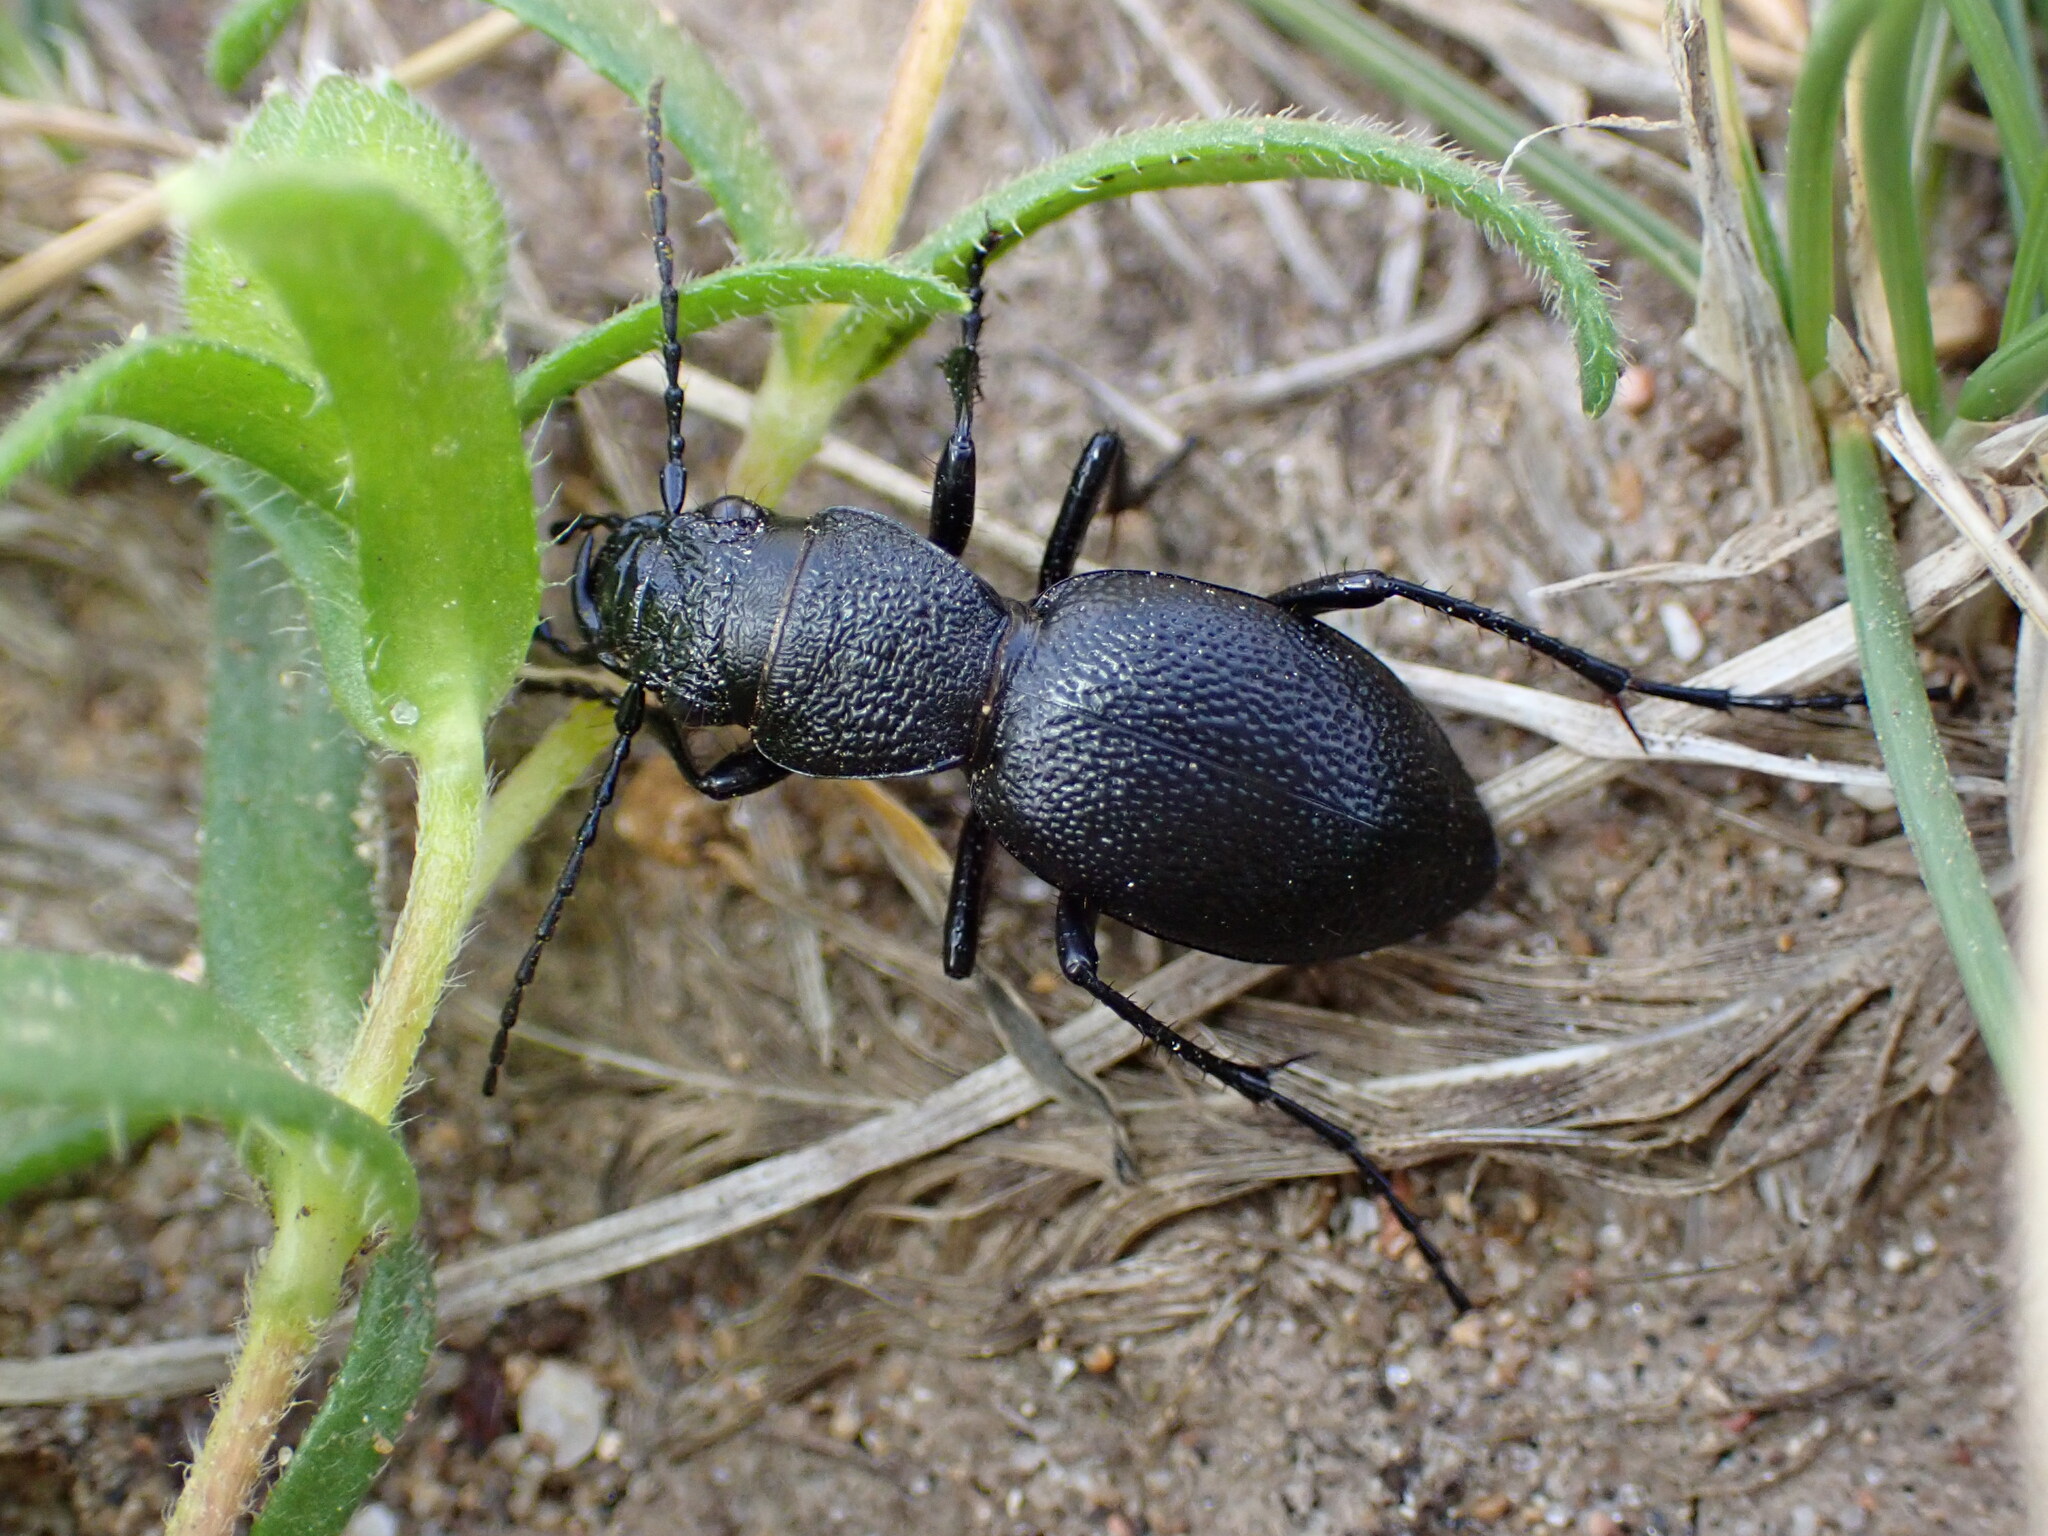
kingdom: Animalia
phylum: Arthropoda
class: Insecta
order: Coleoptera
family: Carabidae
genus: Omus
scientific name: Omus californicus
